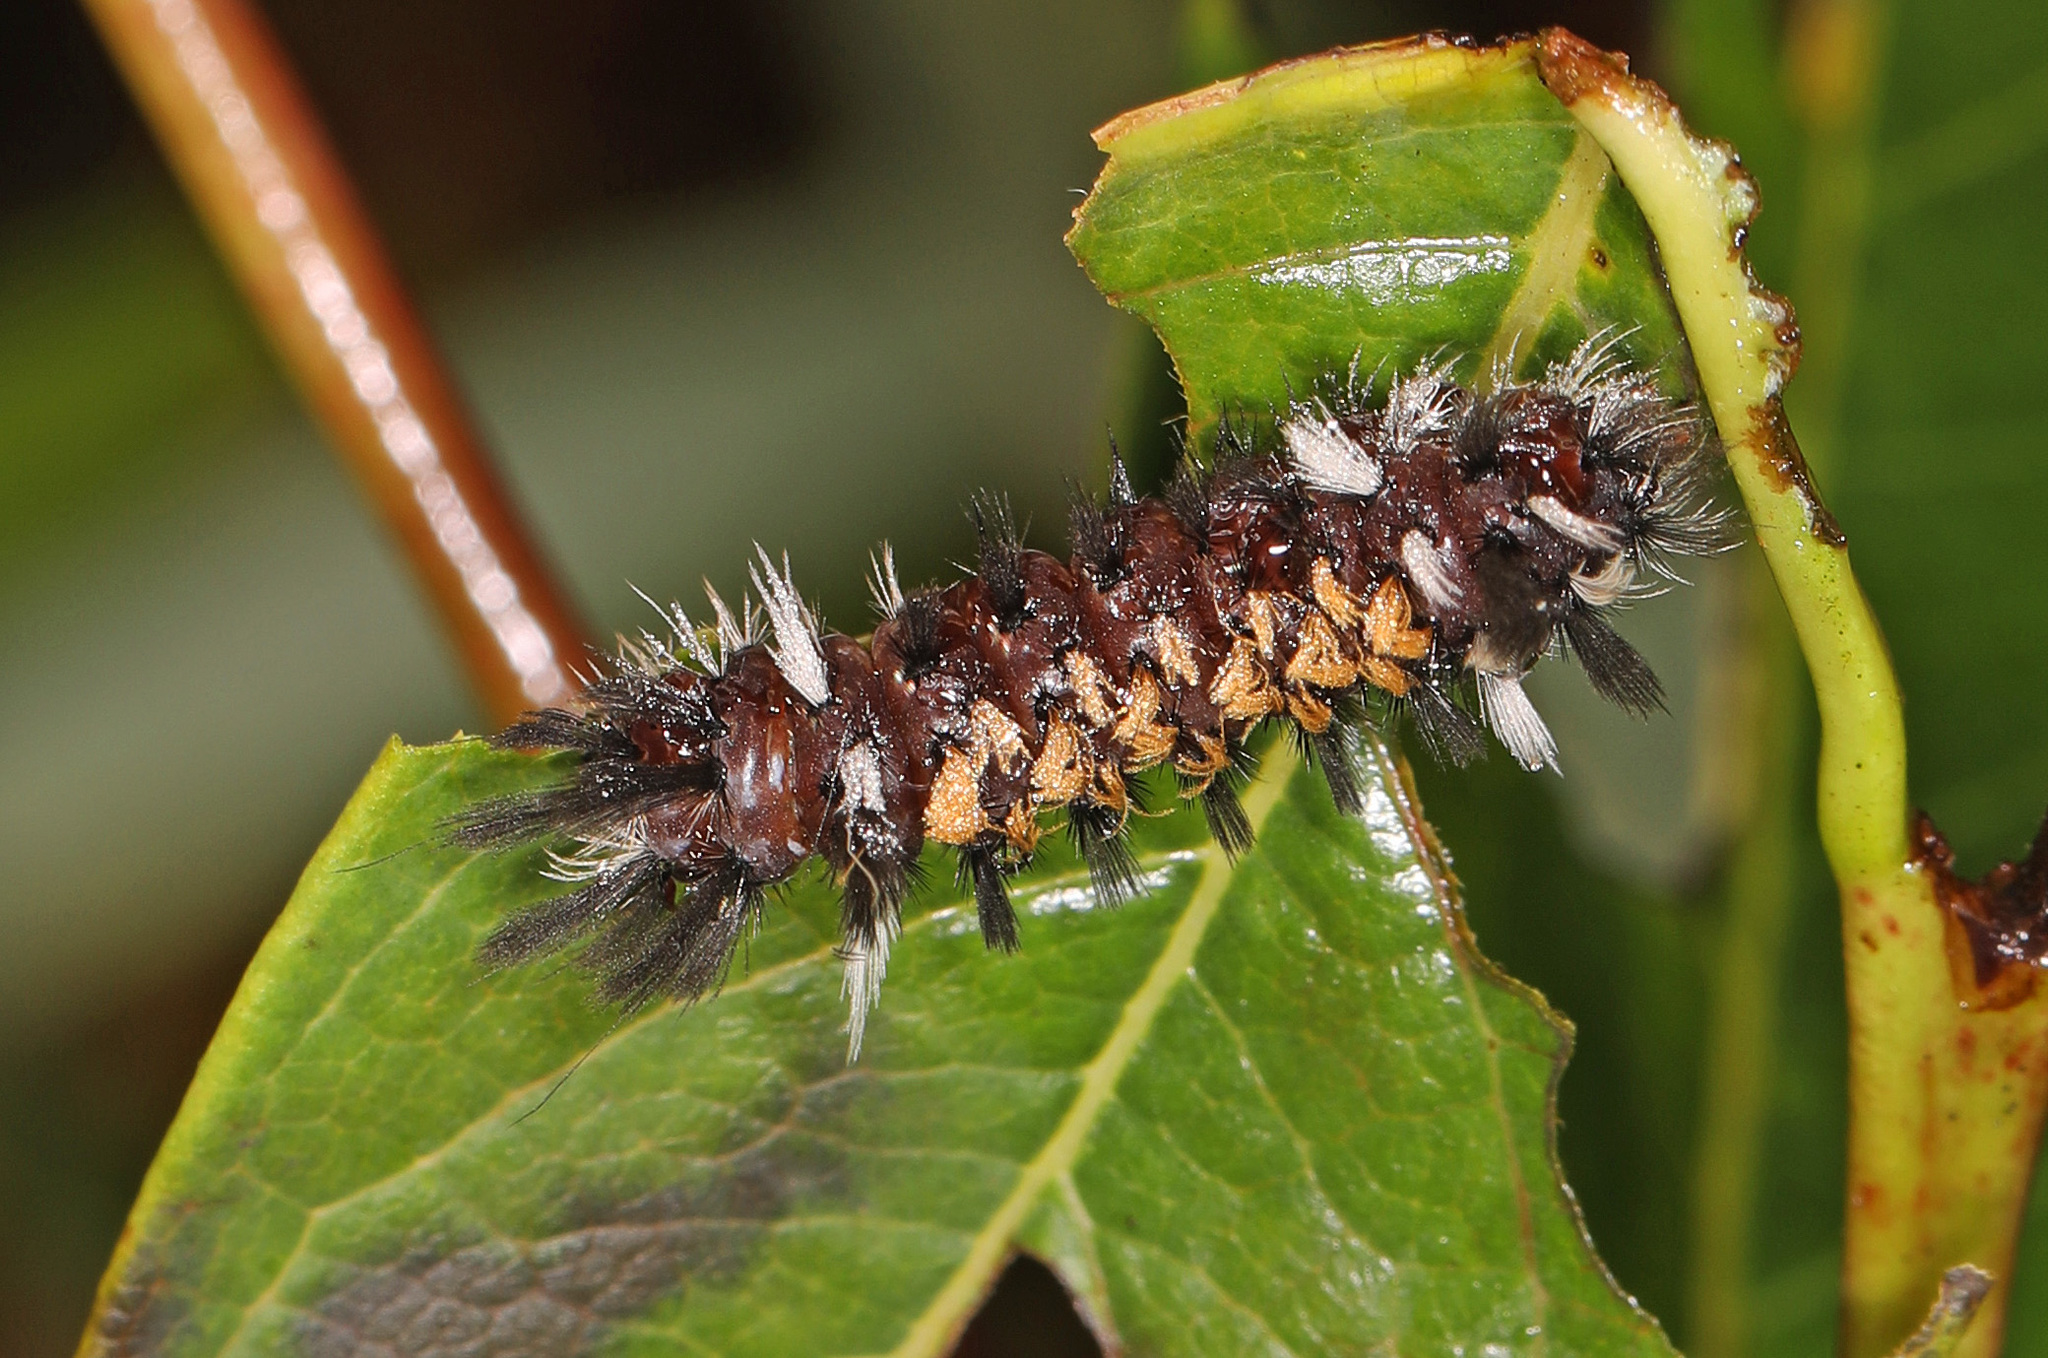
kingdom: Animalia
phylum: Arthropoda
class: Insecta
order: Lepidoptera
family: Erebidae
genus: Euchaetes
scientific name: Euchaetes egle
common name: Milkweed tussock moth
